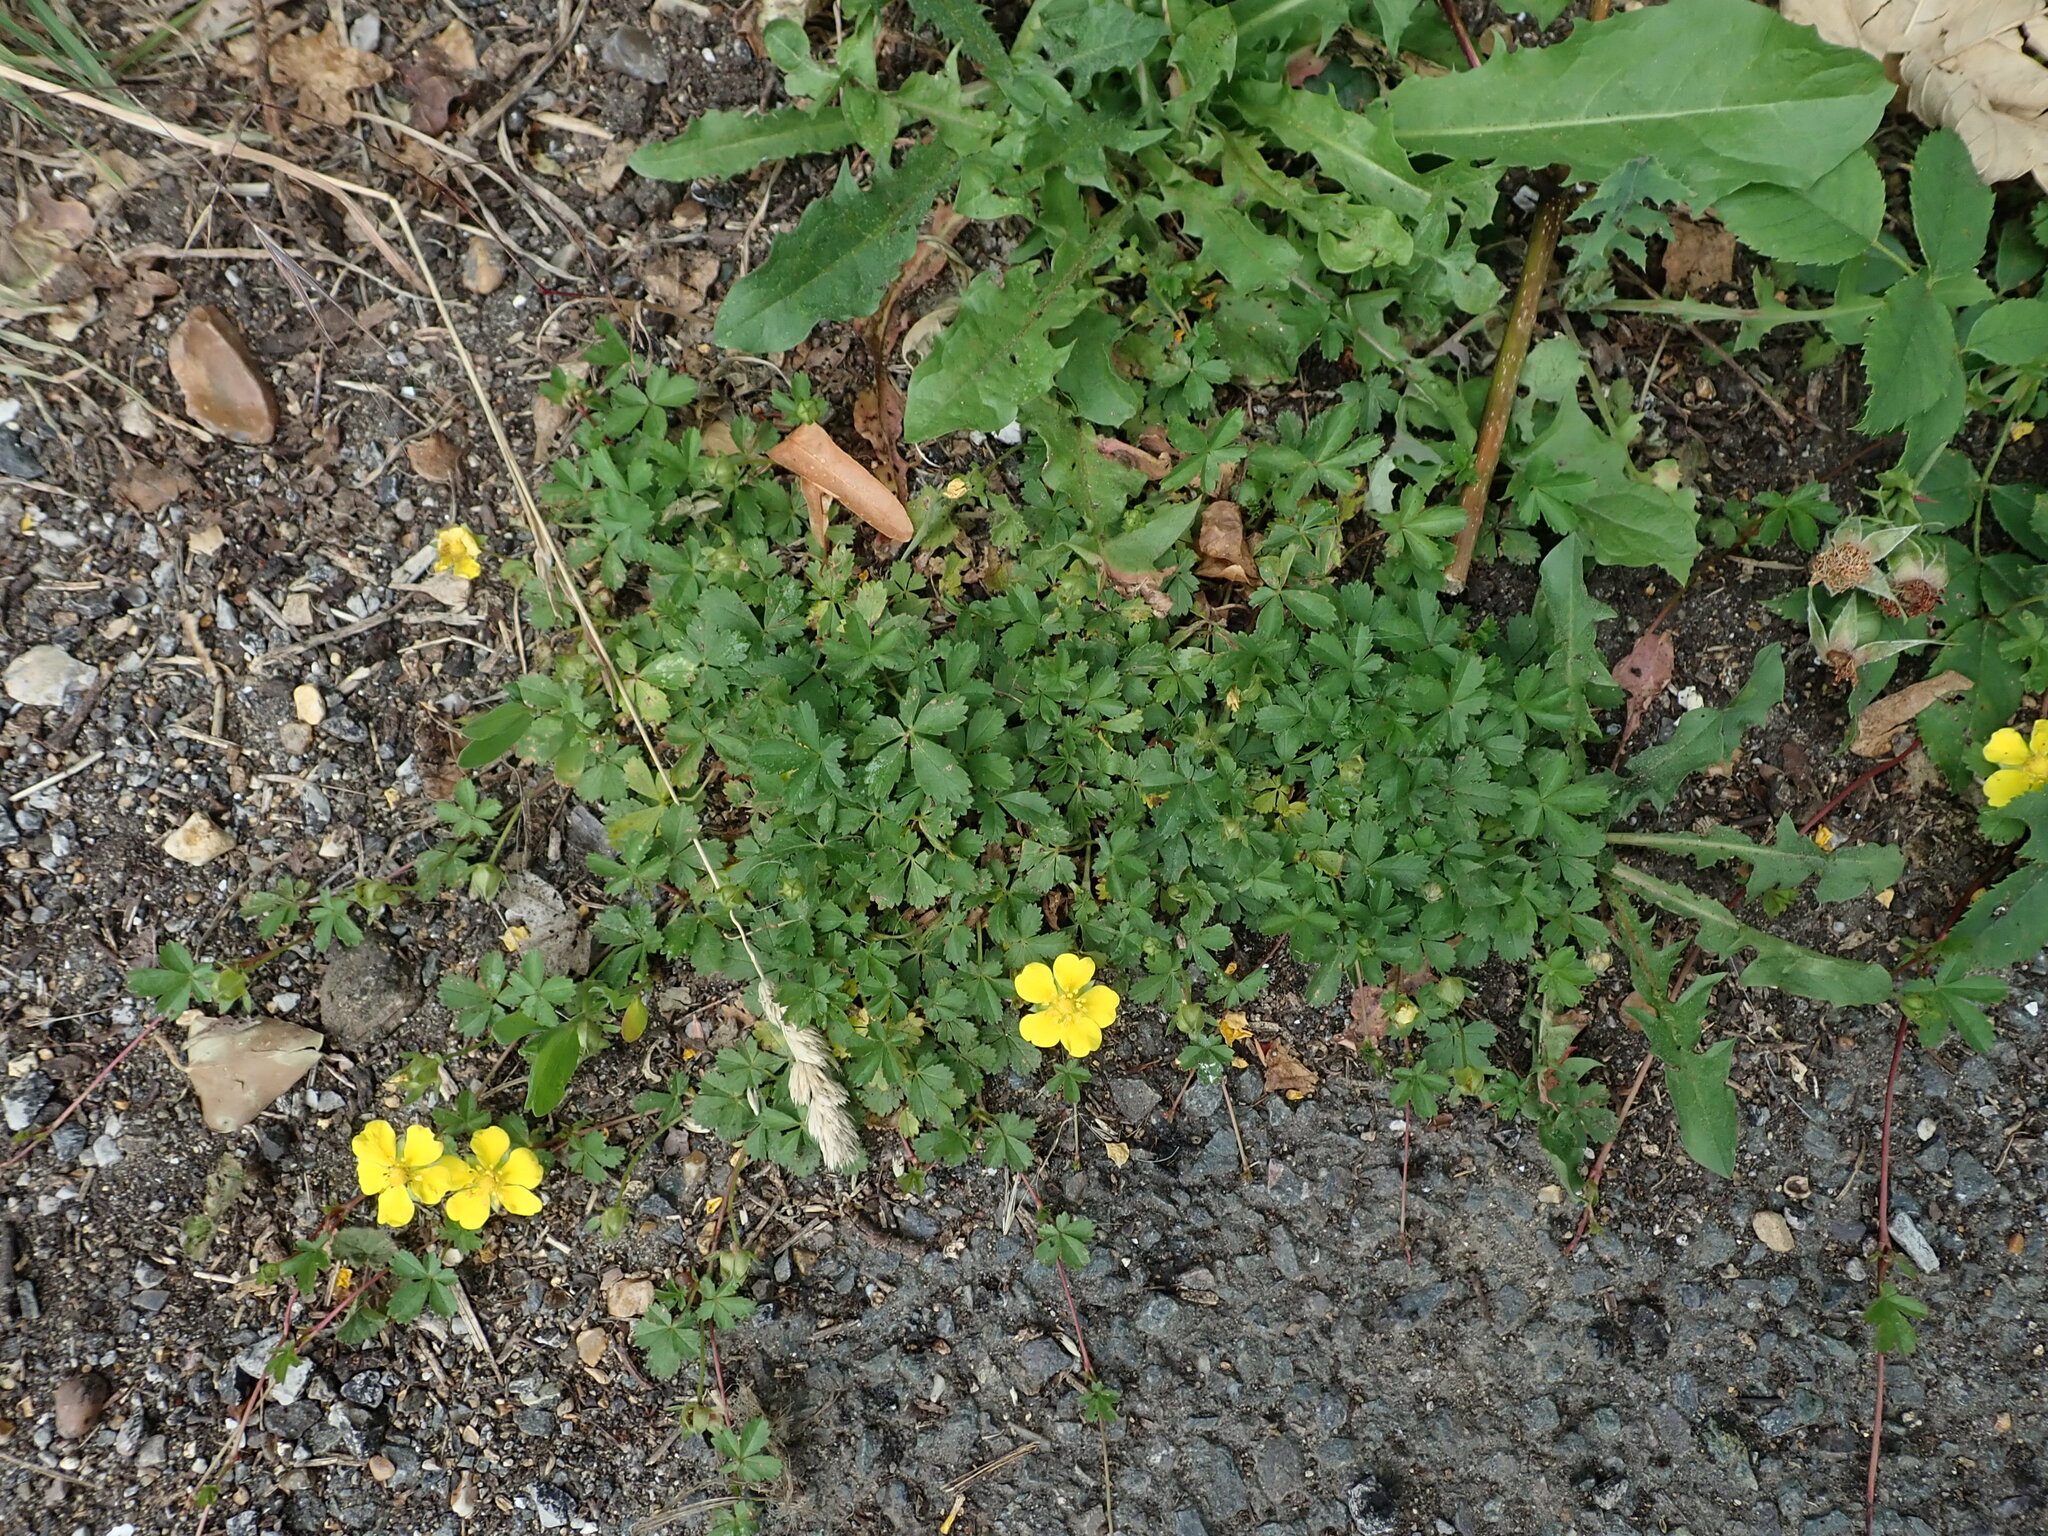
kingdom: Plantae
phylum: Tracheophyta
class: Magnoliopsida
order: Rosales
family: Rosaceae
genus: Potentilla
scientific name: Potentilla reptans
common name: Creeping cinquefoil
